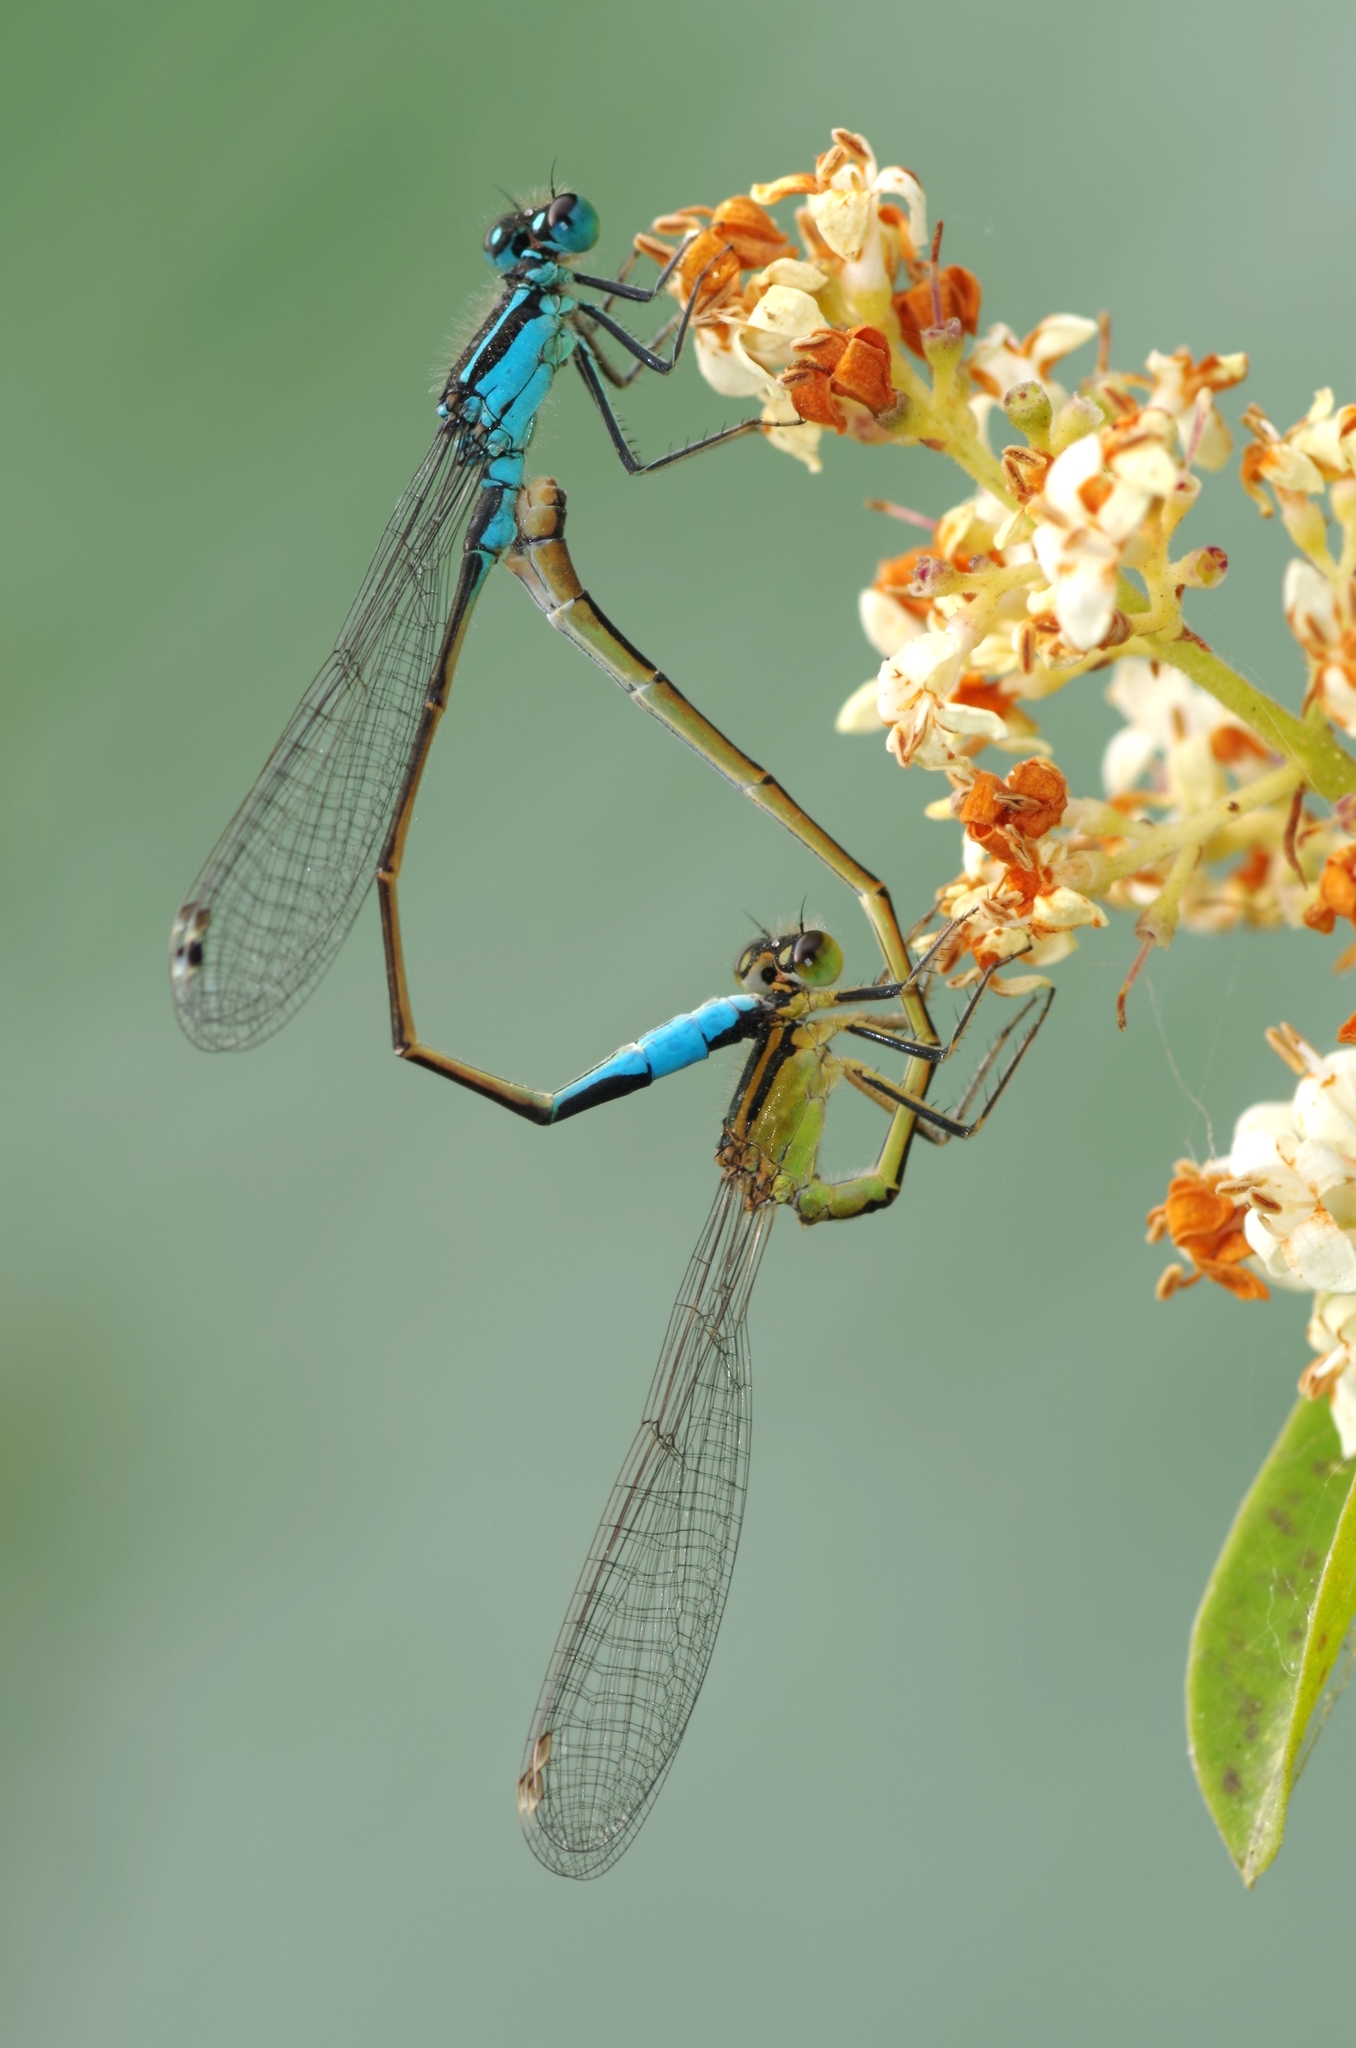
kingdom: Animalia
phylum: Arthropoda
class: Insecta
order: Odonata
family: Coenagrionidae
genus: Ischnura
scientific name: Ischnura elegans
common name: Blue-tailed damselfly
